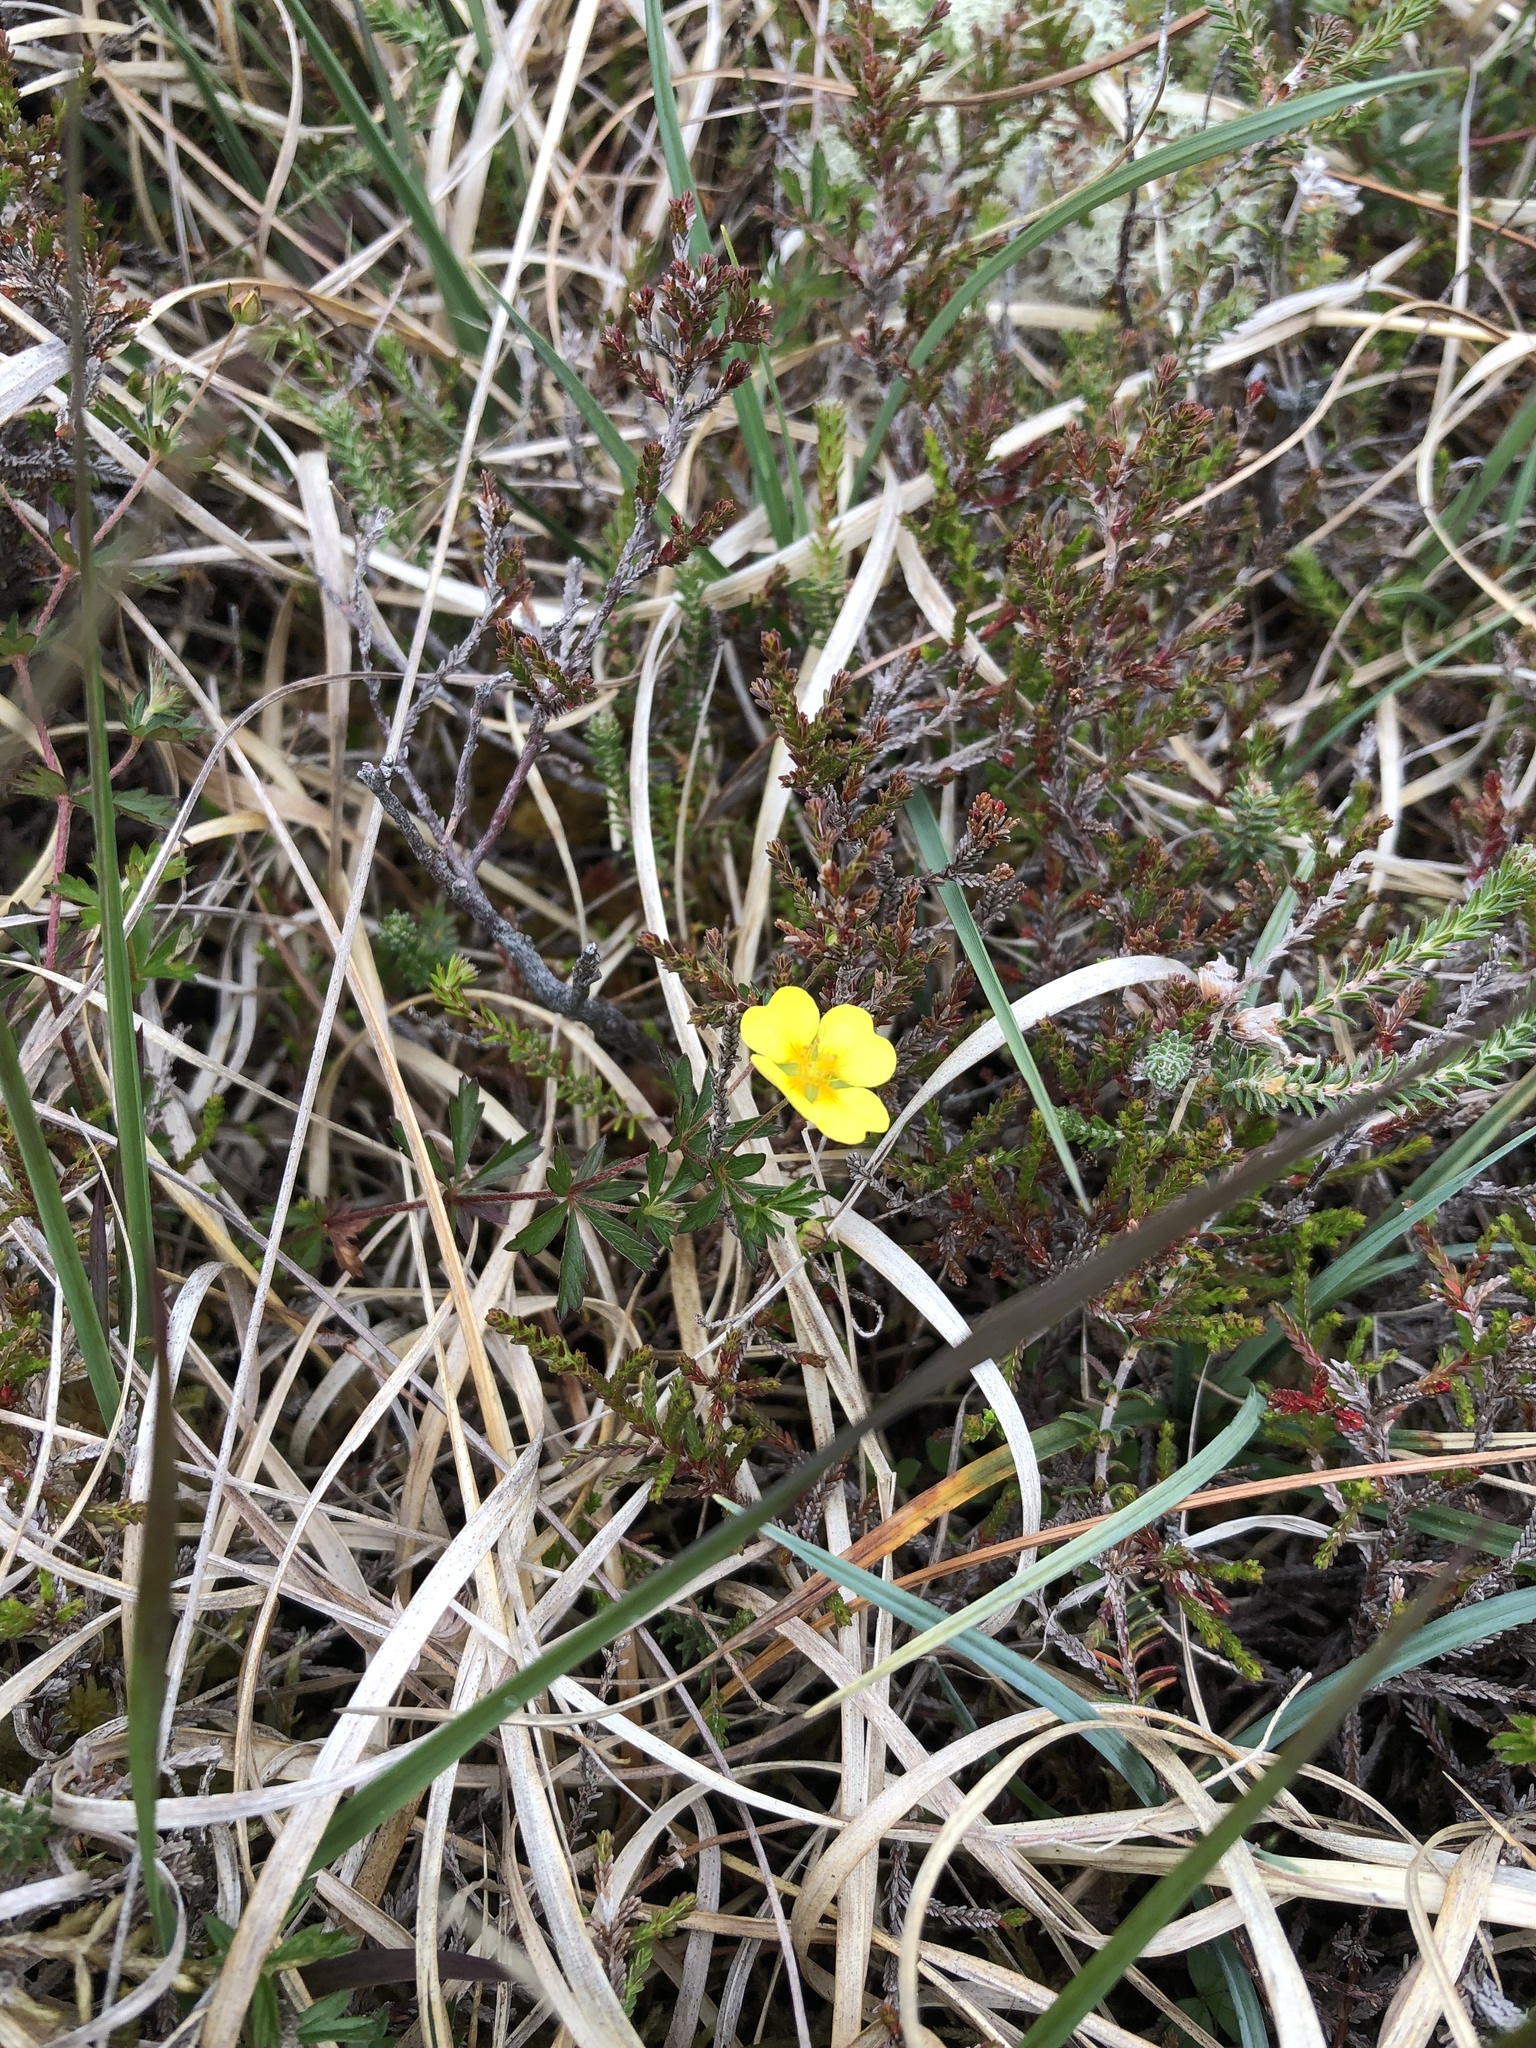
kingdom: Plantae
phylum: Tracheophyta
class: Magnoliopsida
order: Rosales
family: Rosaceae
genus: Potentilla
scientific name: Potentilla erecta
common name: Tormentil
